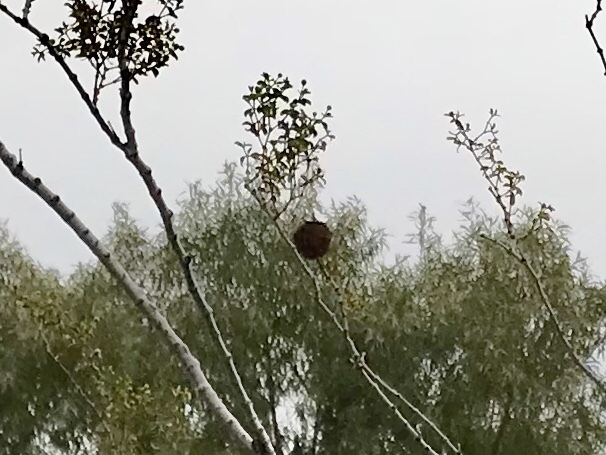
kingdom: Animalia
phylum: Arthropoda
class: Insecta
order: Diptera
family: Cecidomyiidae
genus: Asphondylia
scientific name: Asphondylia auripila
